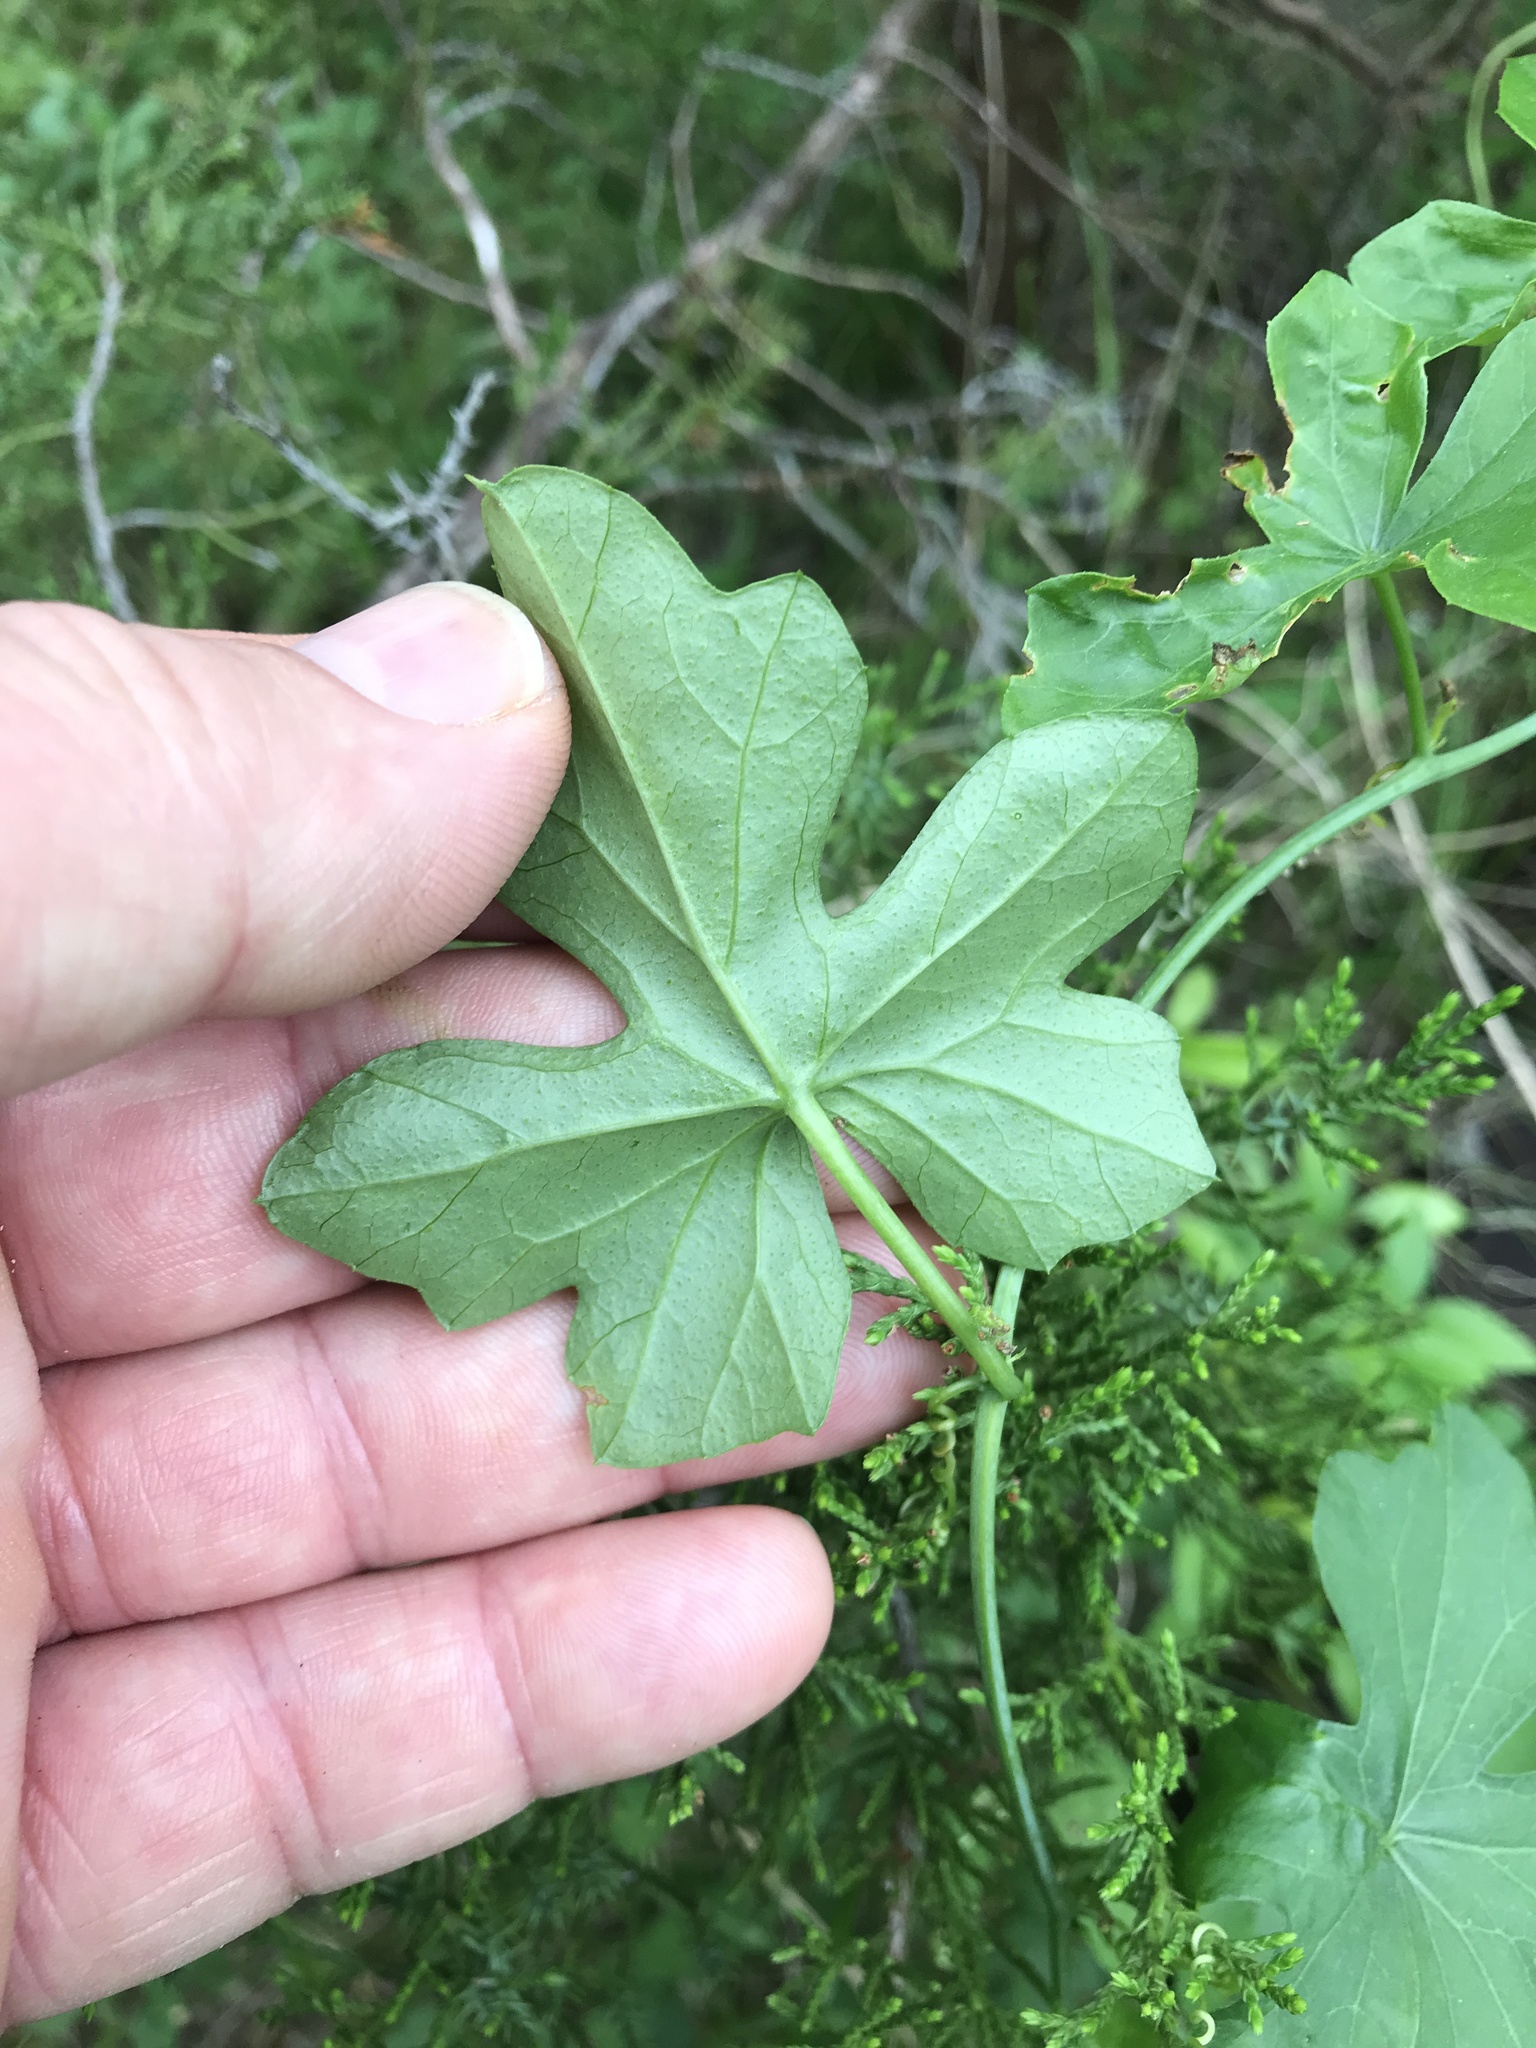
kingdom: Plantae
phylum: Tracheophyta
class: Magnoliopsida
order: Cucurbitales
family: Cucurbitaceae
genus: Ibervillea
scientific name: Ibervillea lindheimeri
